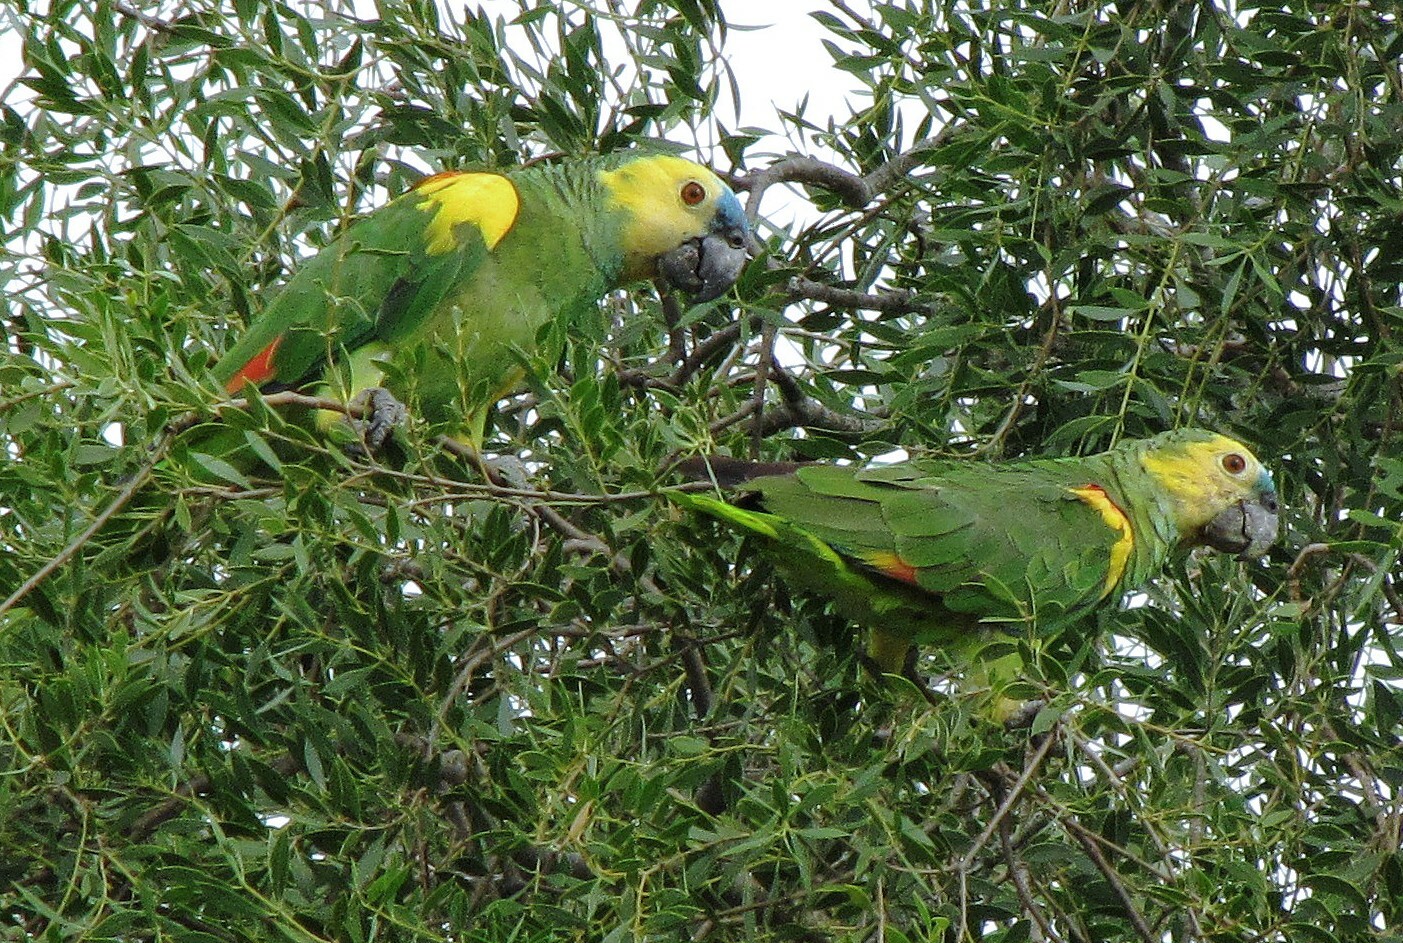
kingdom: Animalia
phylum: Chordata
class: Aves
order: Psittaciformes
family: Psittacidae
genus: Amazona
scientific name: Amazona aestiva
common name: Turquoise-fronted amazon
